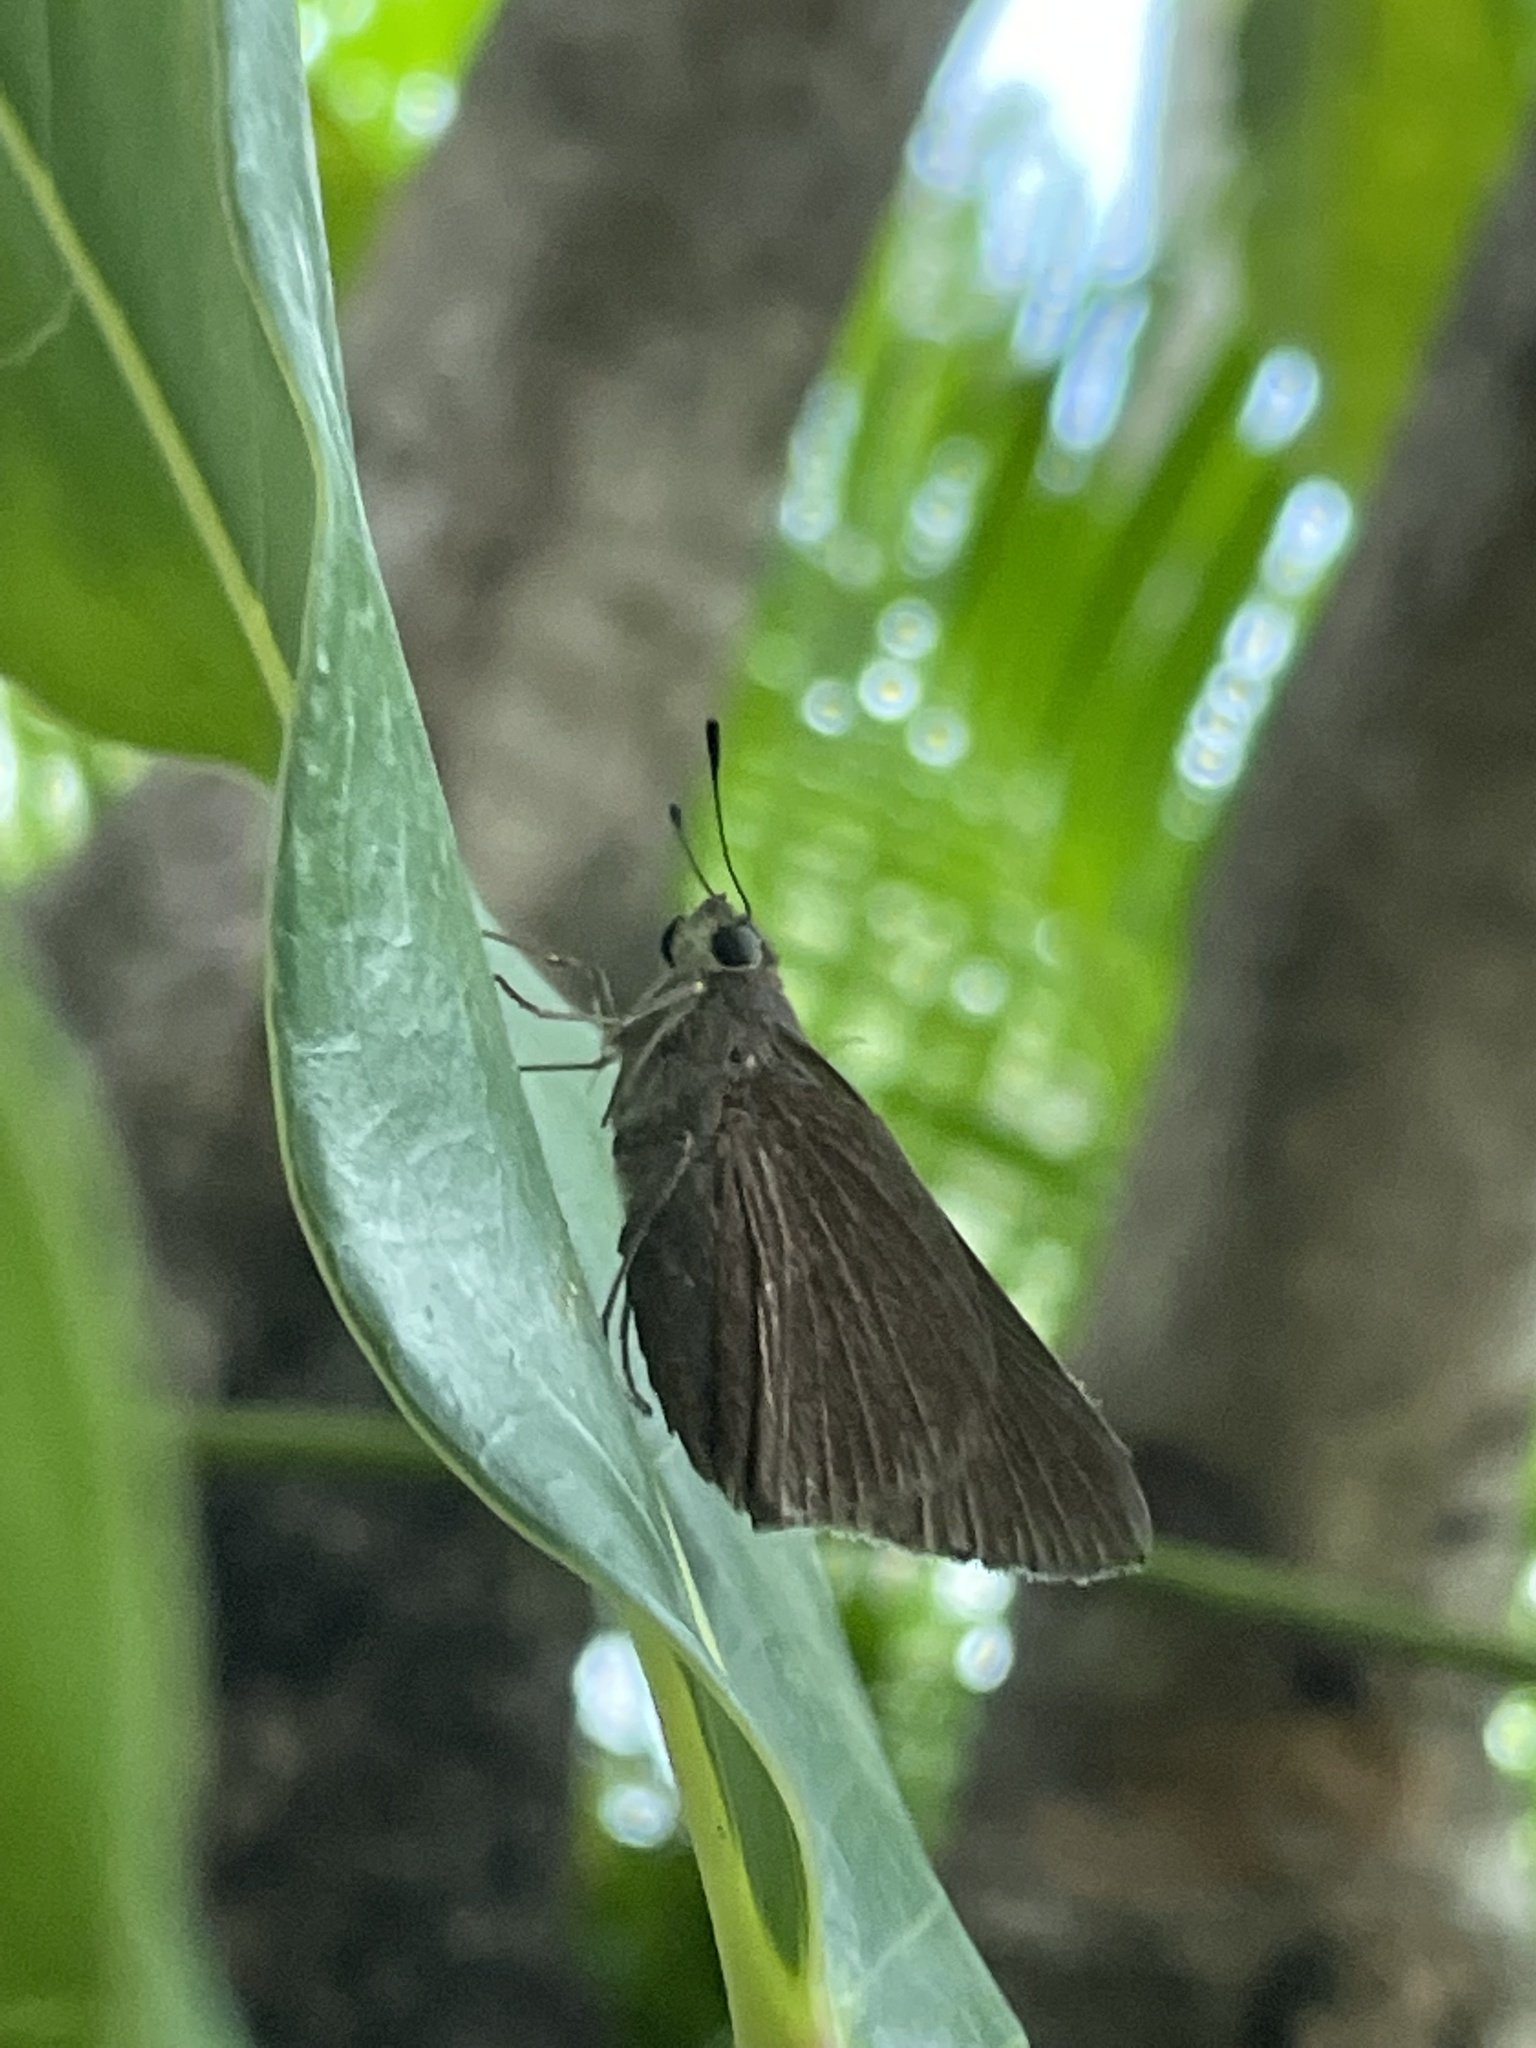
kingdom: Animalia
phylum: Arthropoda
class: Insecta
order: Lepidoptera
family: Hesperiidae
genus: Asbolis
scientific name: Asbolis capucinus
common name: Monk skipper
